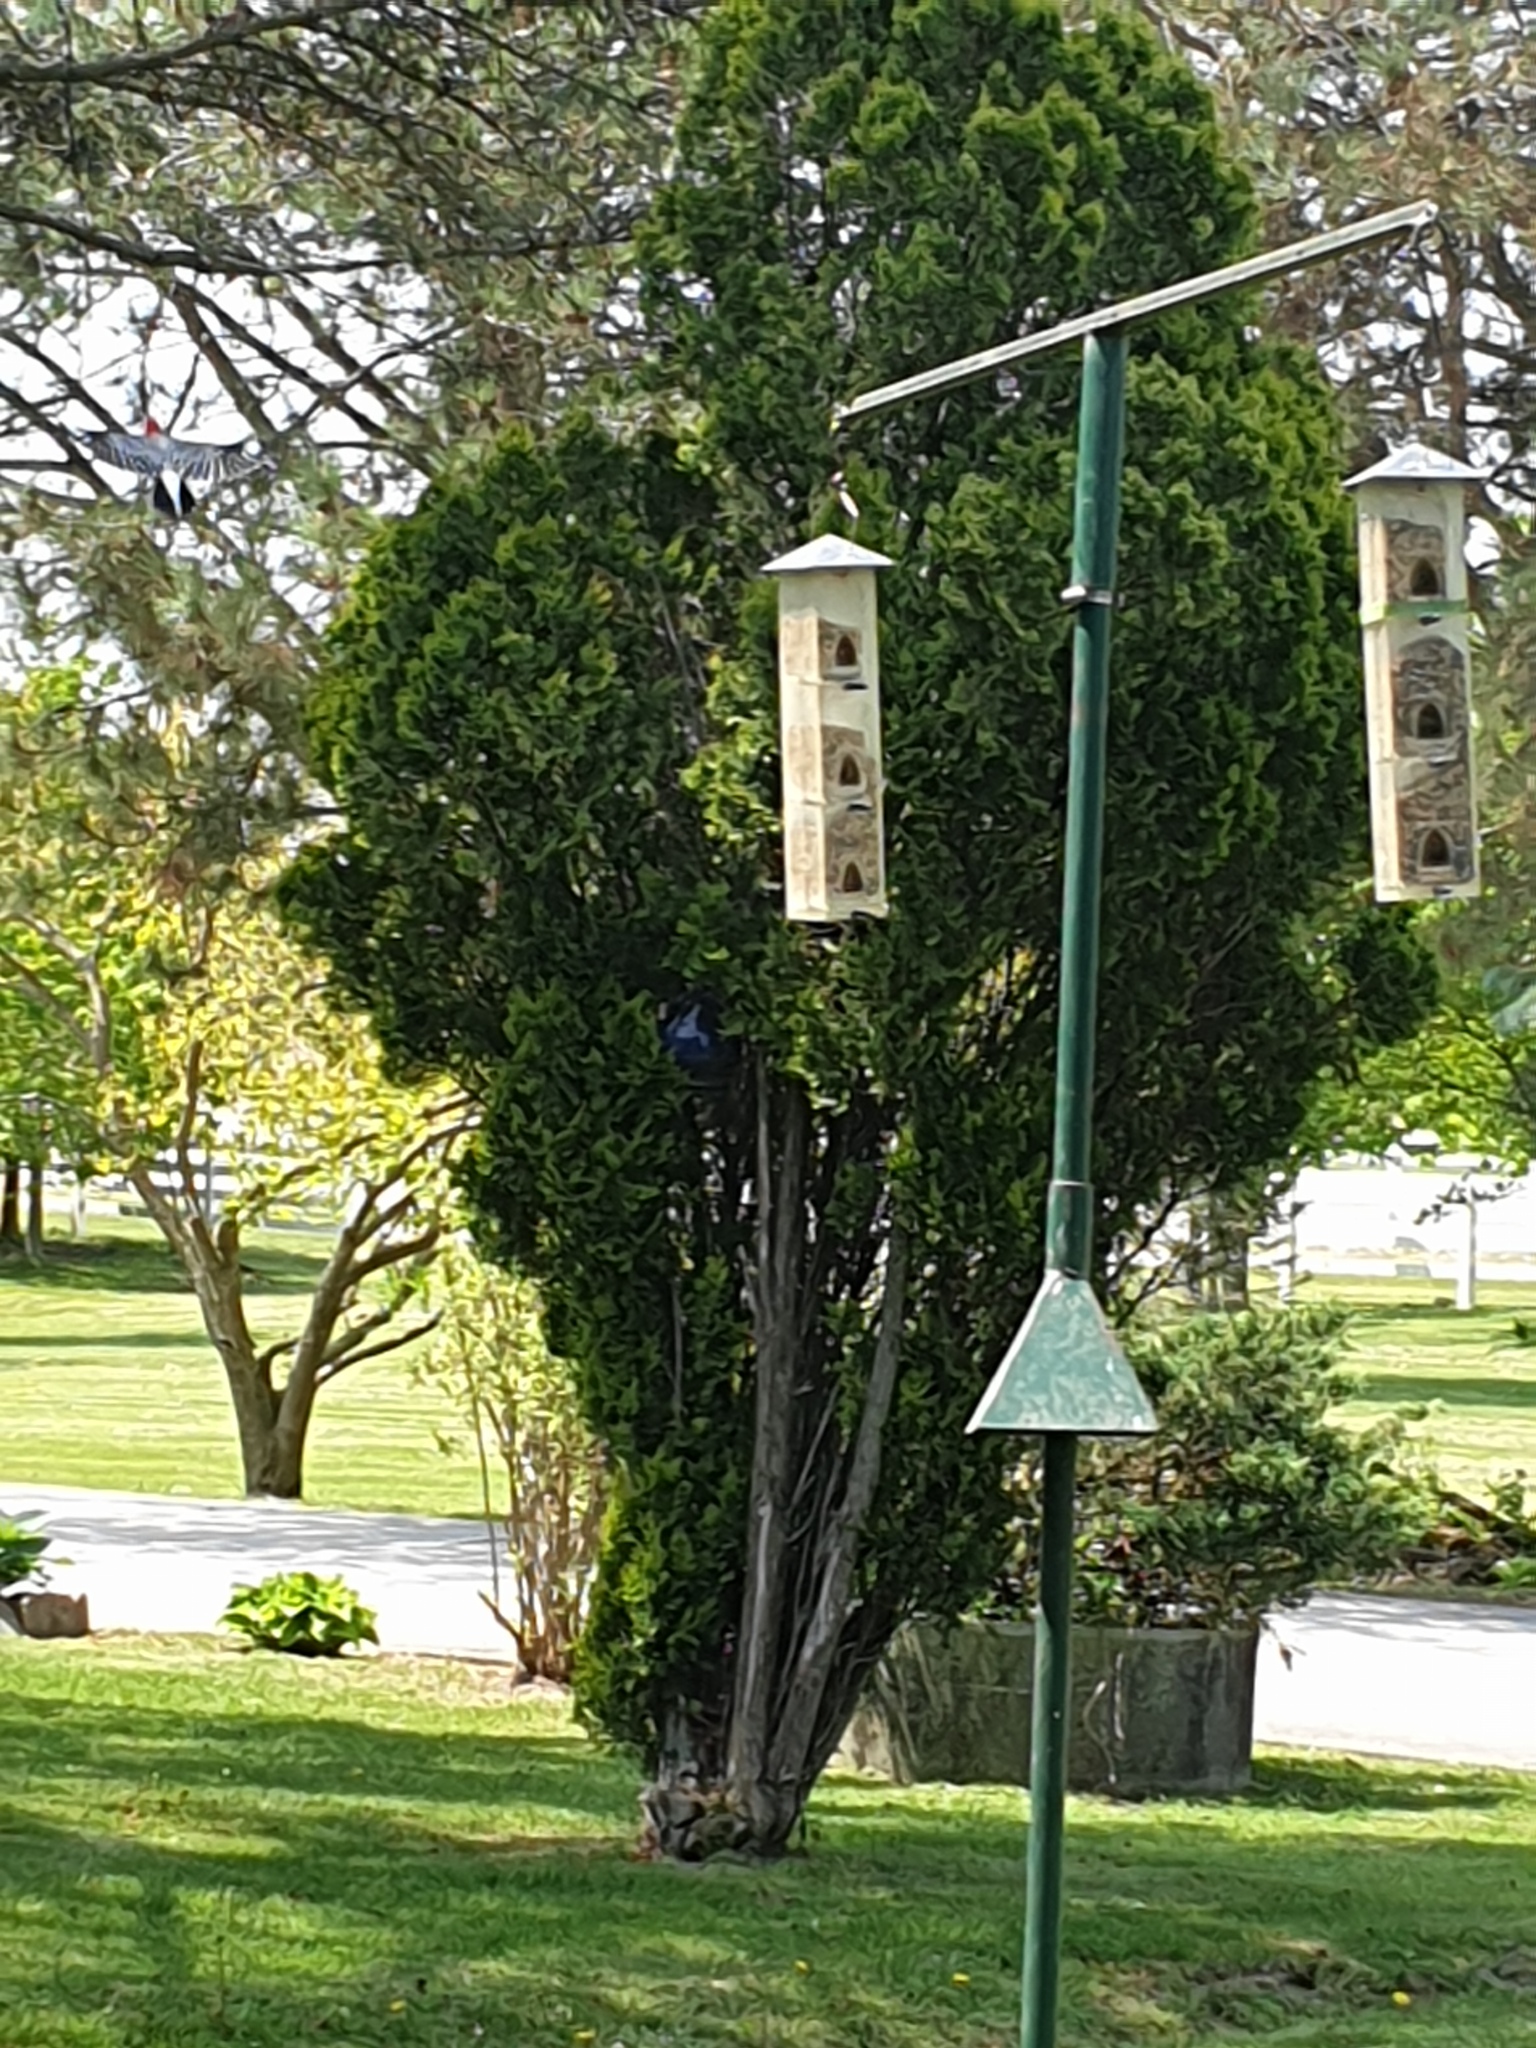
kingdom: Animalia
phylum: Chordata
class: Aves
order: Piciformes
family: Picidae
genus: Melanerpes
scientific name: Melanerpes carolinus
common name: Red-bellied woodpecker
